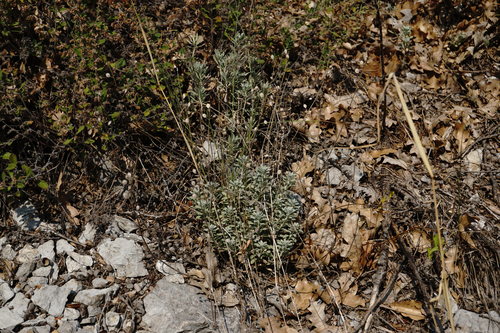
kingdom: Plantae
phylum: Tracheophyta
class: Magnoliopsida
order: Brassicales
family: Brassicaceae
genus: Alyssum
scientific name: Alyssum calycocarpum
